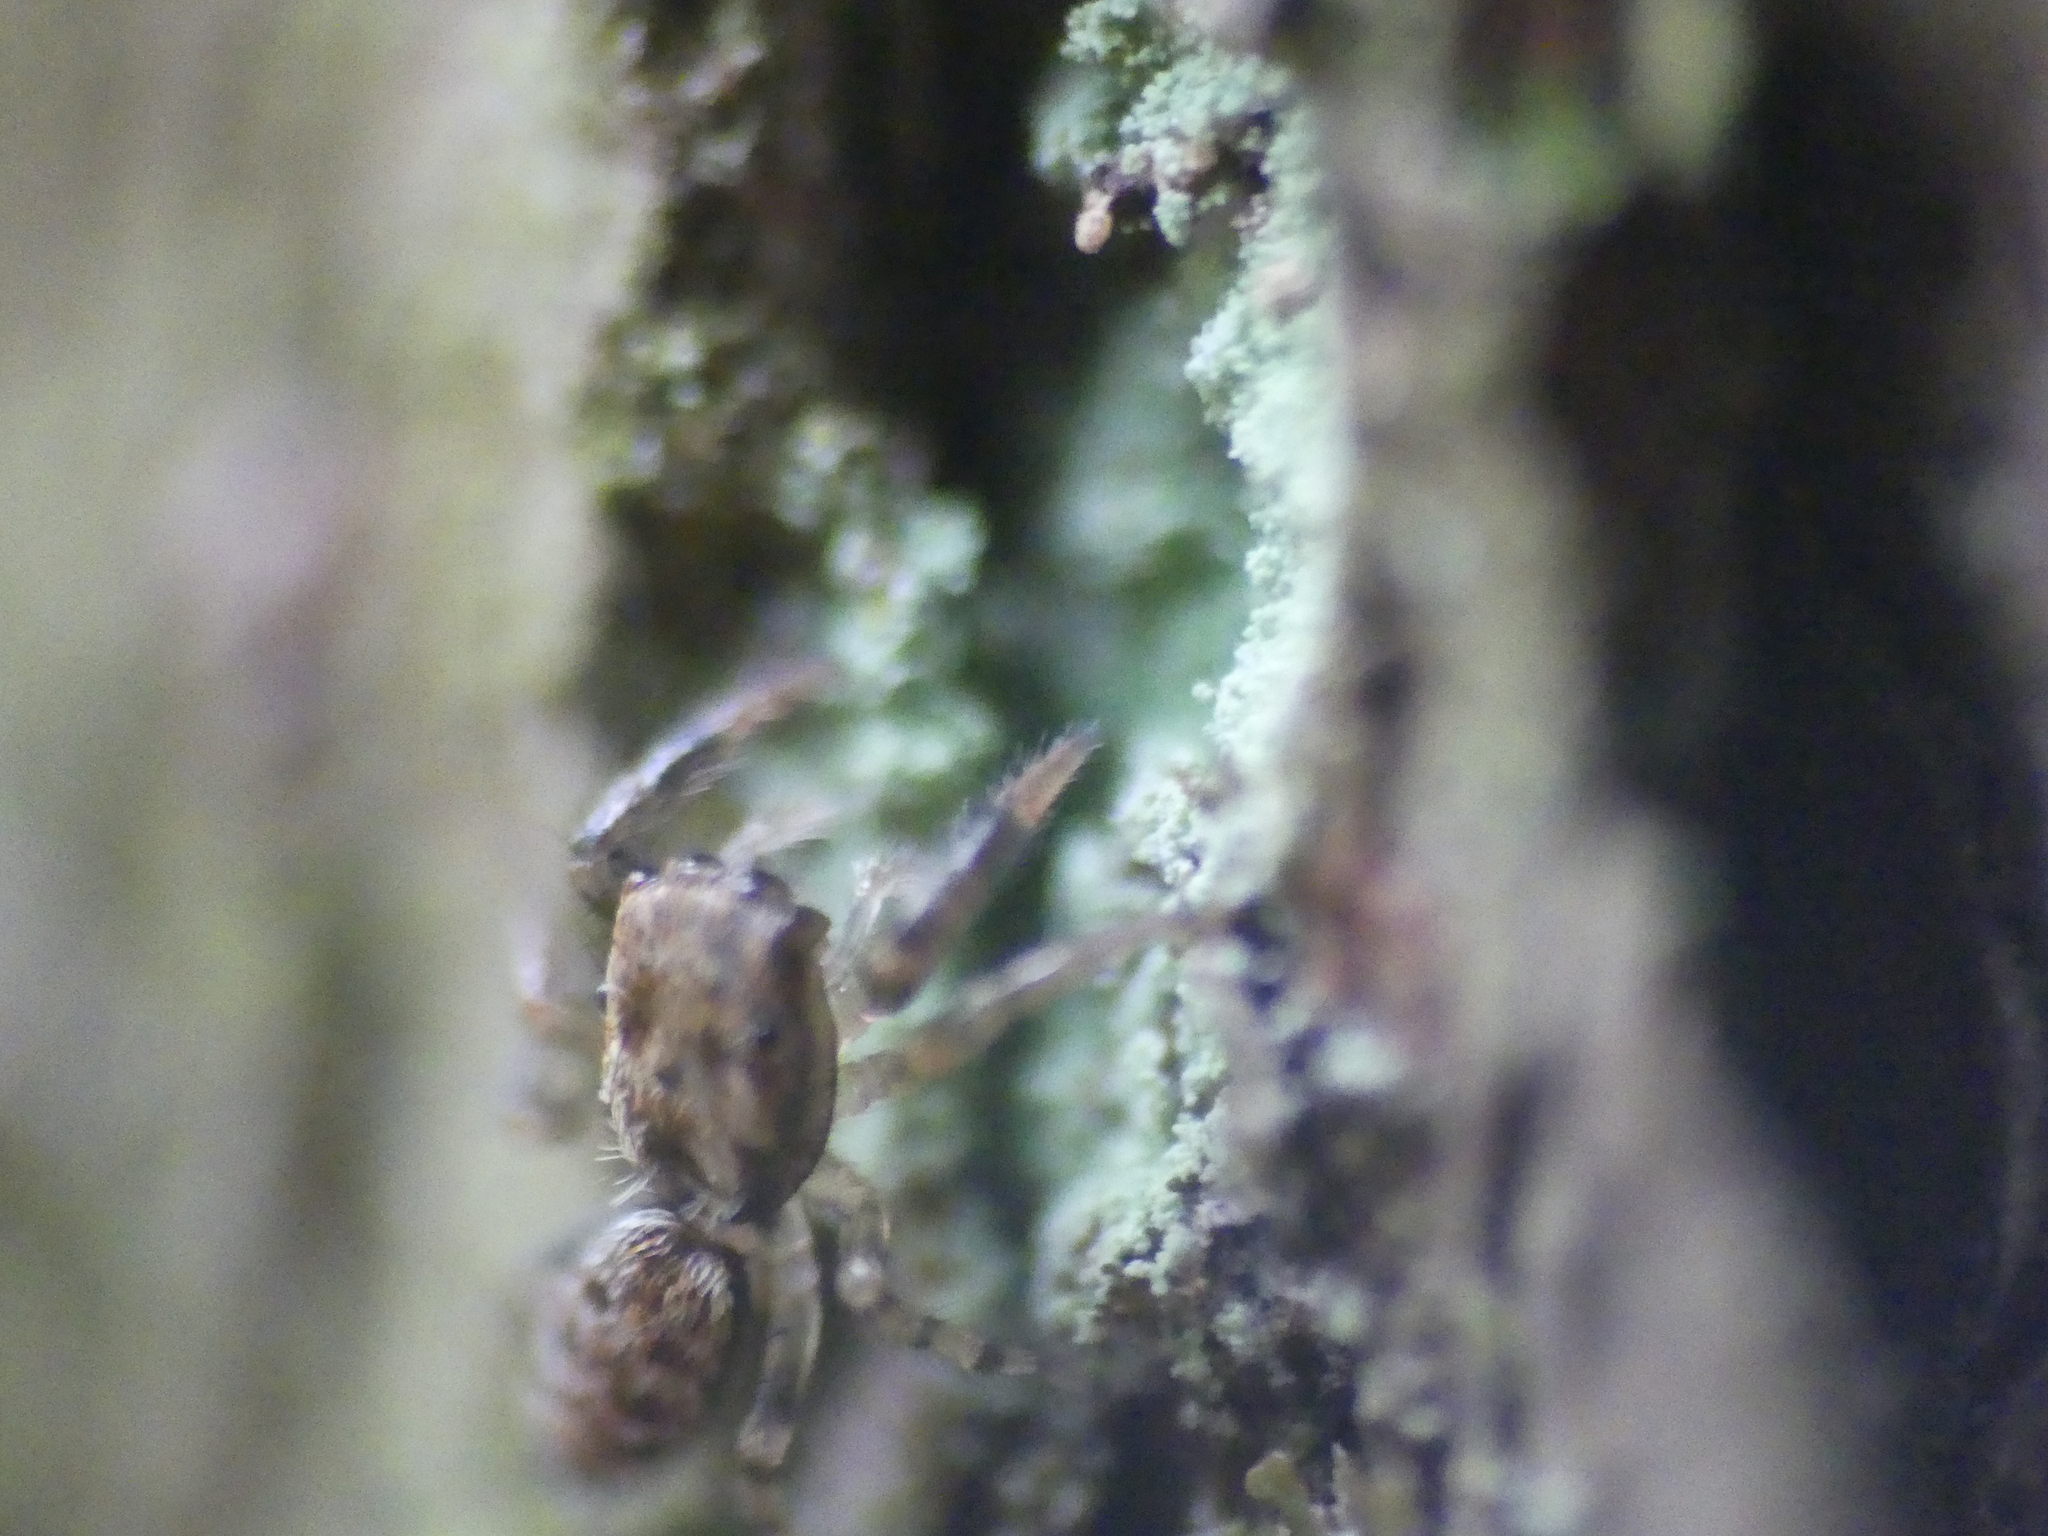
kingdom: Animalia
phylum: Arthropoda
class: Arachnida
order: Araneae
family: Salticidae
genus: Marpissa
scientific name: Marpissa muscosa
